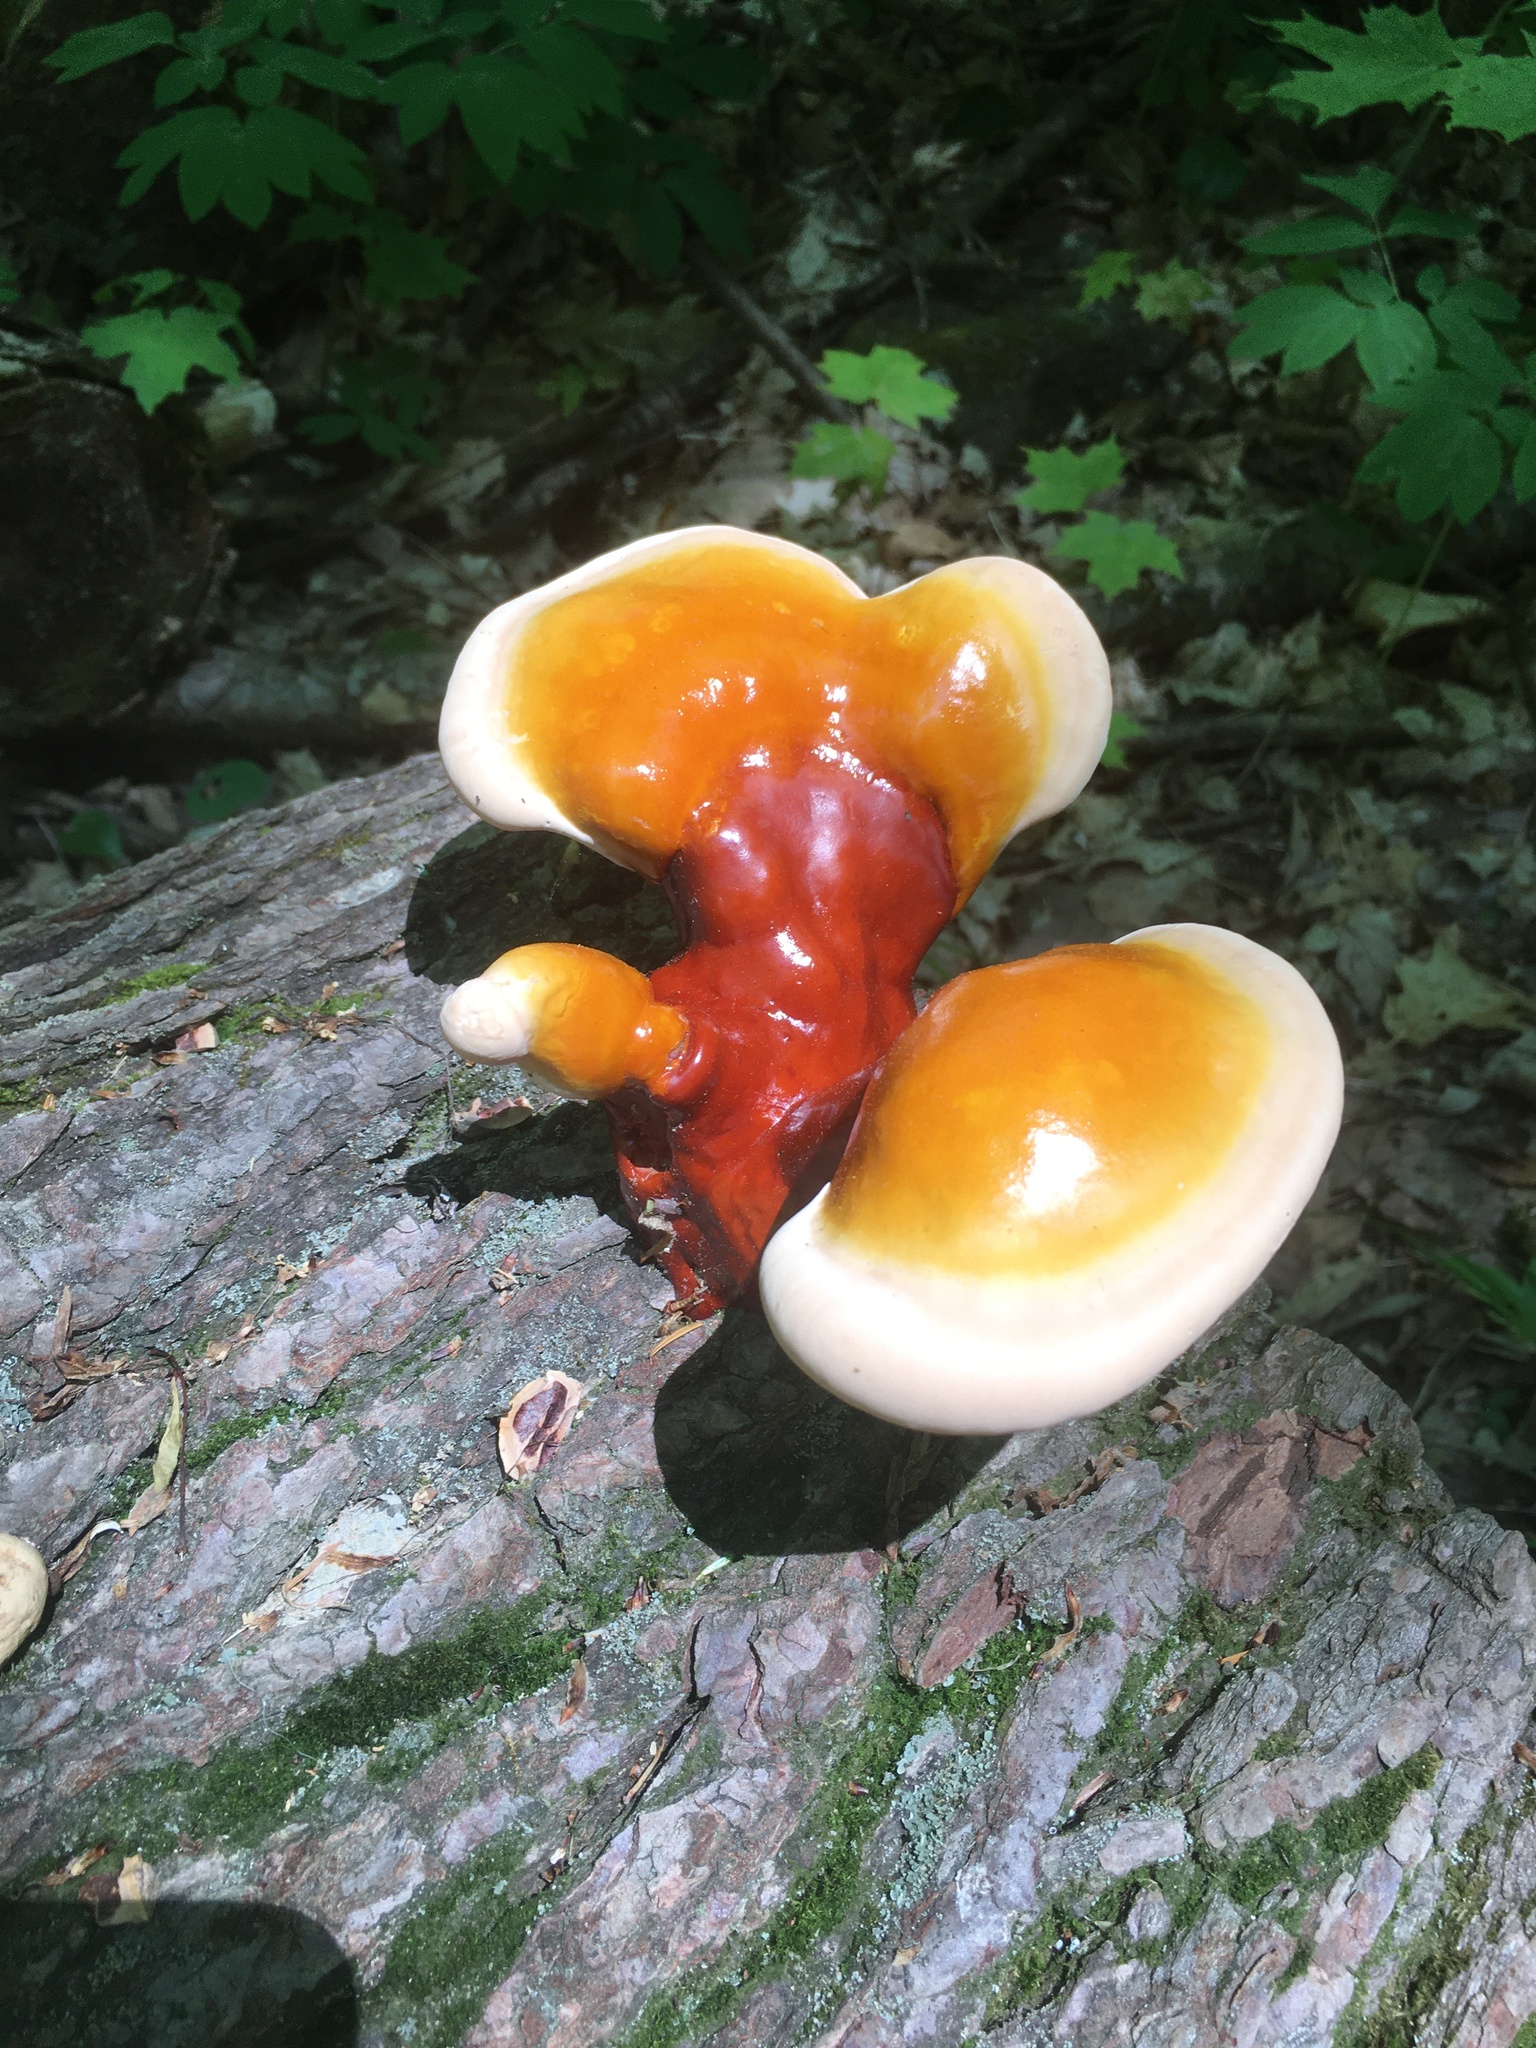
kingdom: Fungi
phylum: Basidiomycota
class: Agaricomycetes
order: Polyporales
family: Polyporaceae
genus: Ganoderma
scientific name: Ganoderma tsugae
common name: Hemlock varnish shelf
